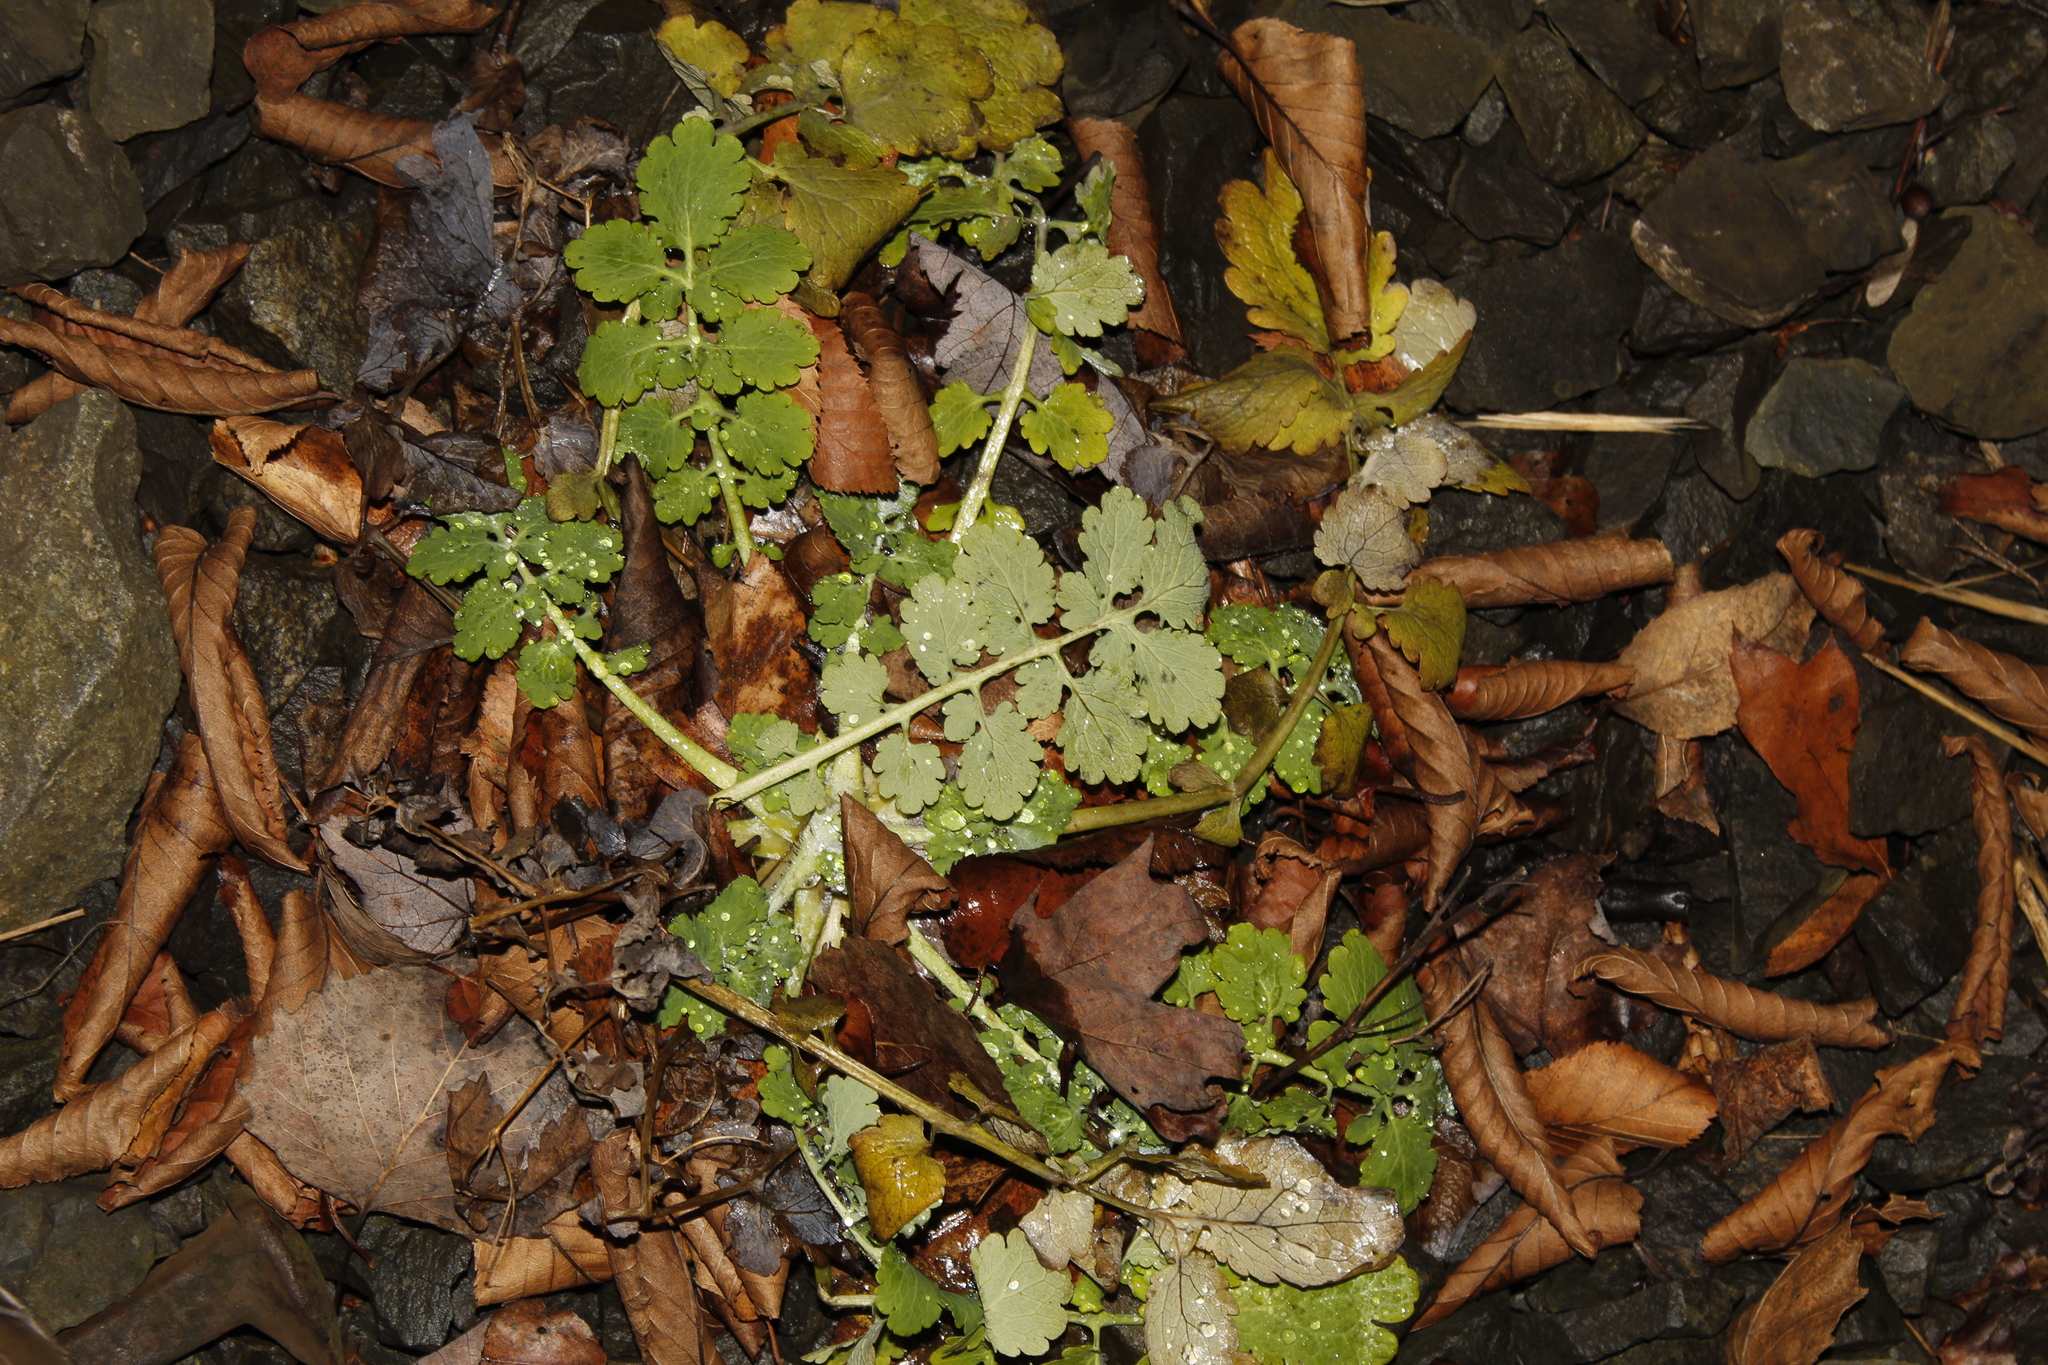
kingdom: Plantae
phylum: Tracheophyta
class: Magnoliopsida
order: Ranunculales
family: Papaveraceae
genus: Chelidonium
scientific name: Chelidonium majus
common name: Greater celandine
